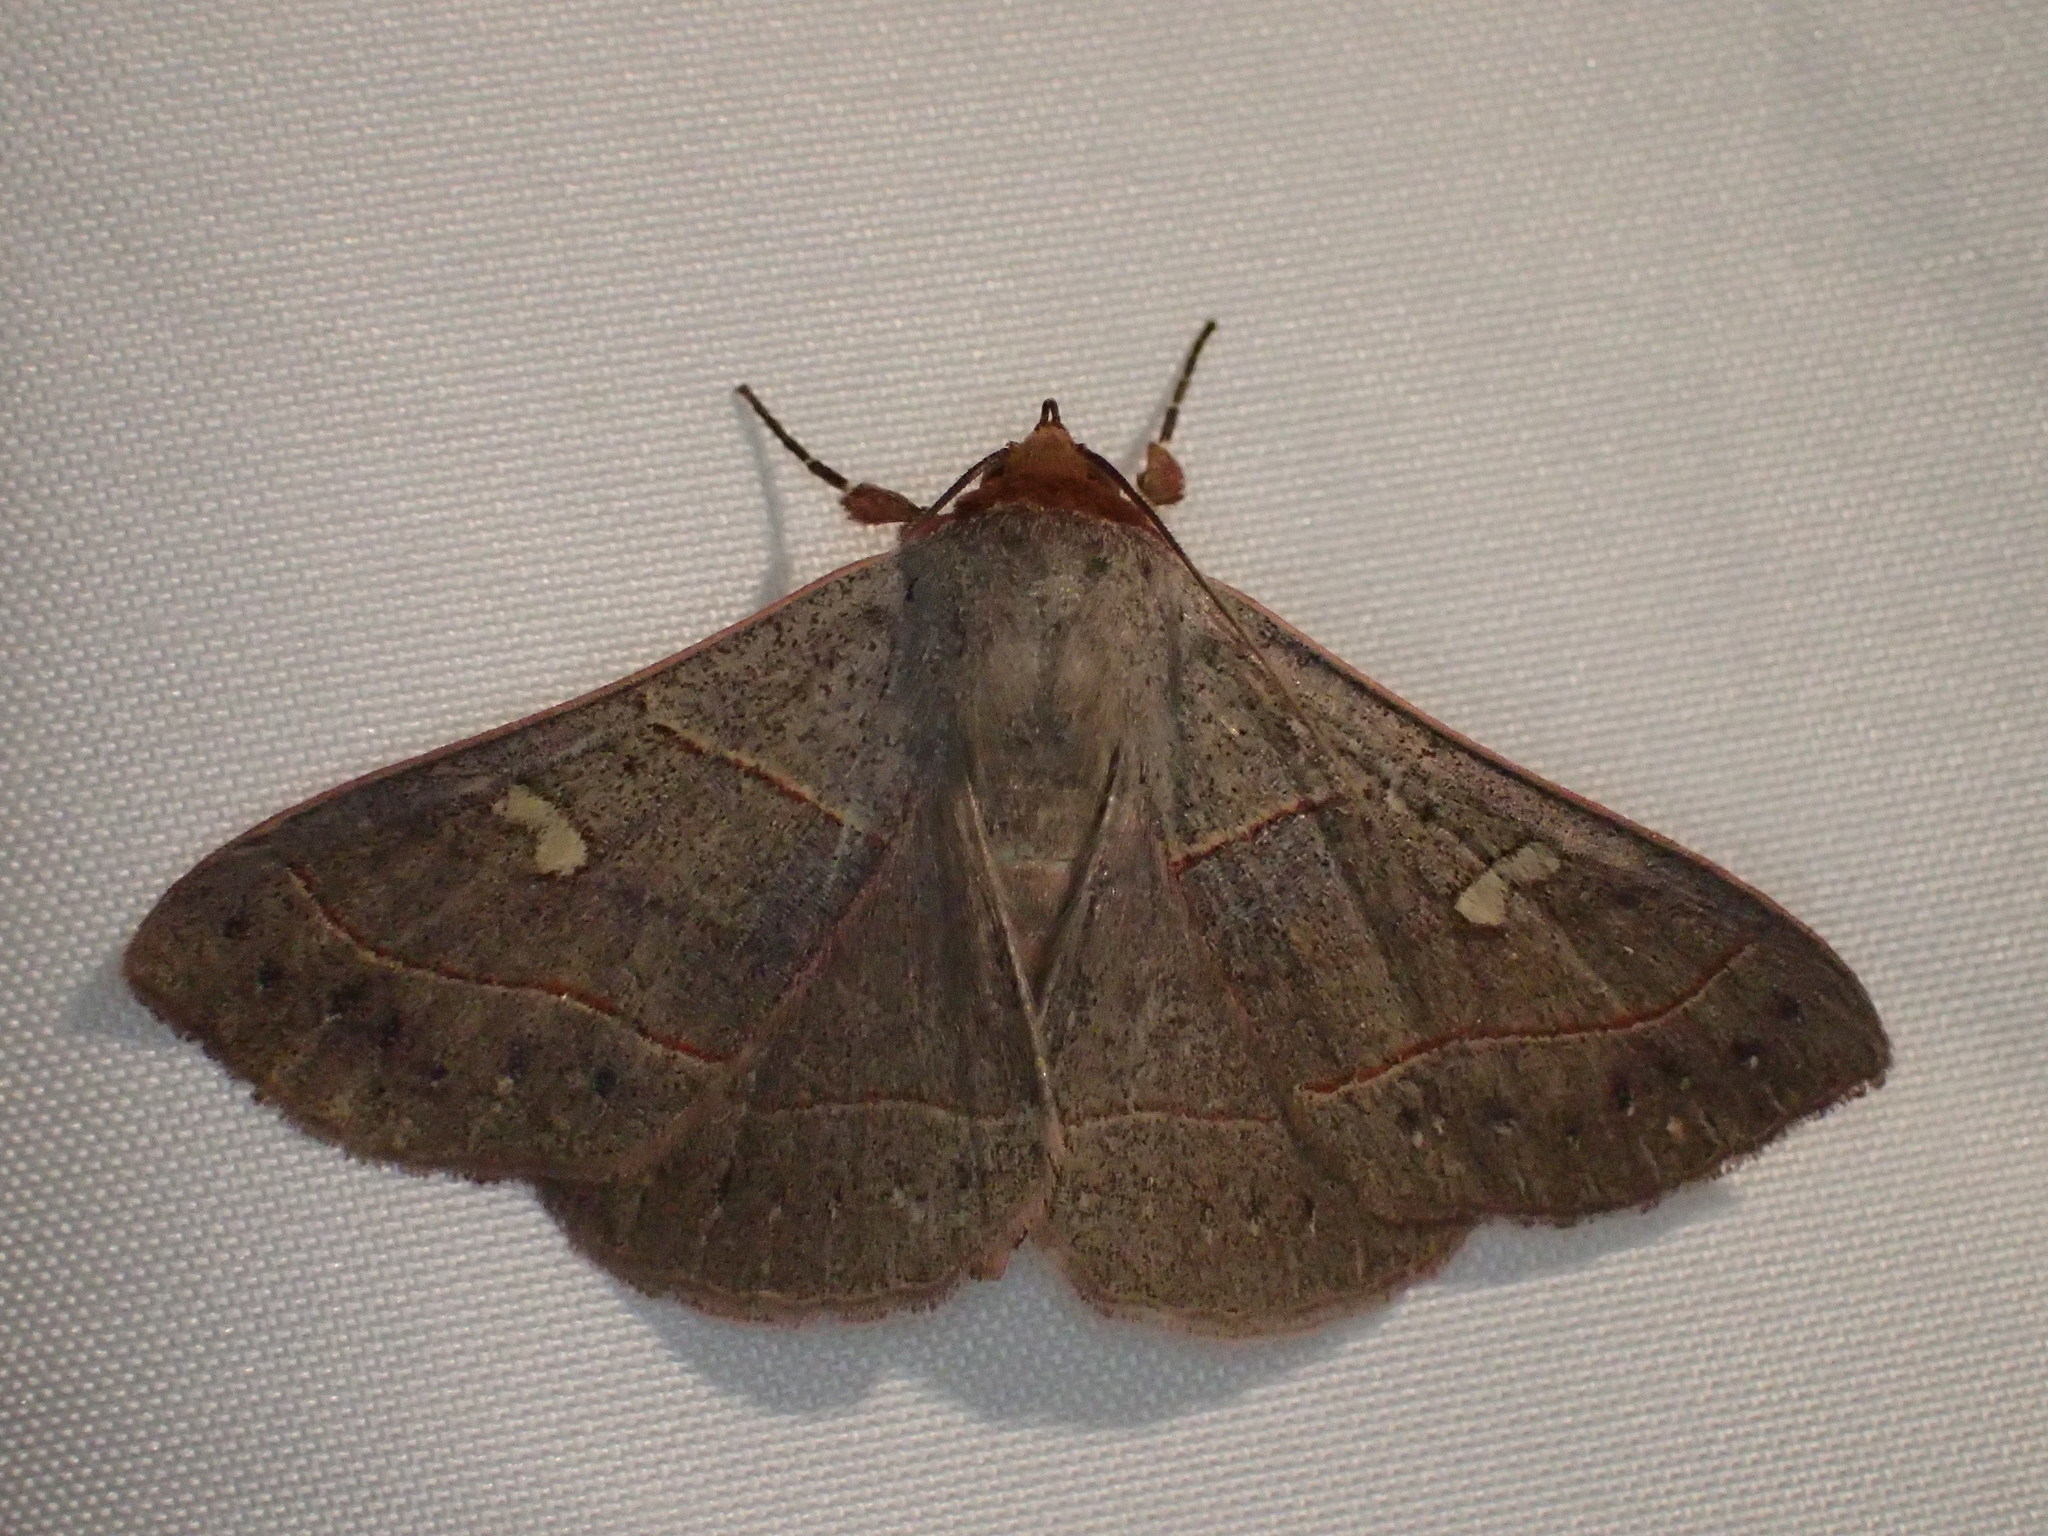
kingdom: Animalia
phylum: Arthropoda
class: Insecta
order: Lepidoptera
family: Erebidae
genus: Panopoda
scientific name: Panopoda rufimargo
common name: Red-lined panopoda moth
